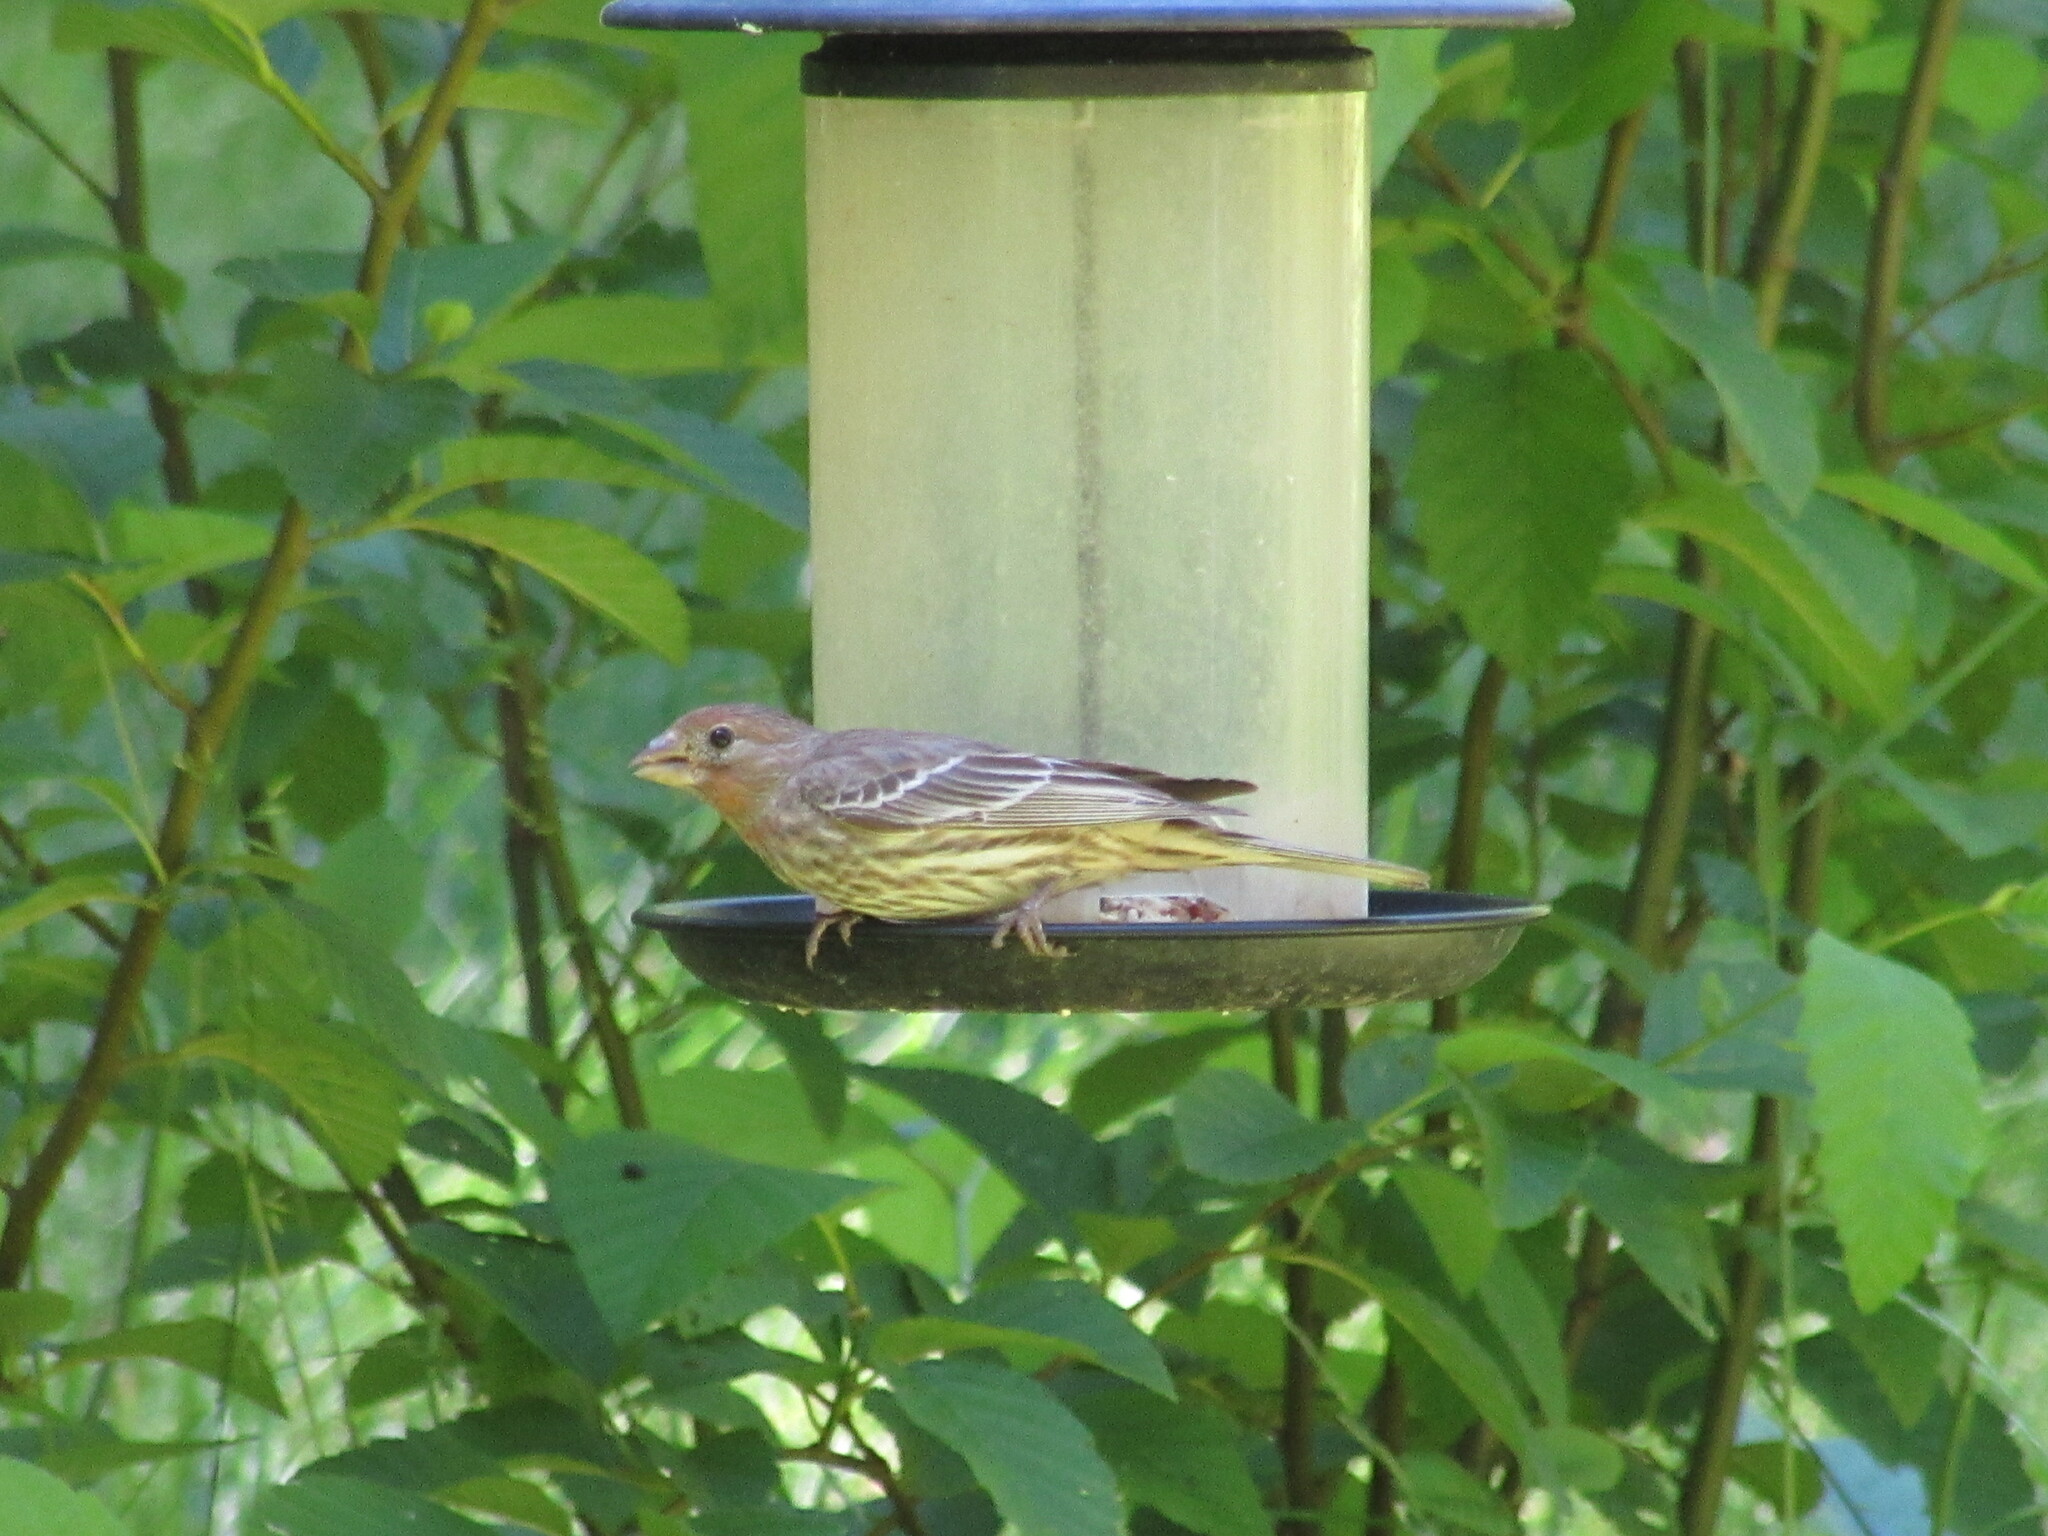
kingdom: Animalia
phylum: Chordata
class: Aves
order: Passeriformes
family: Fringillidae
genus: Haemorhous
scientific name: Haemorhous mexicanus
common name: House finch
